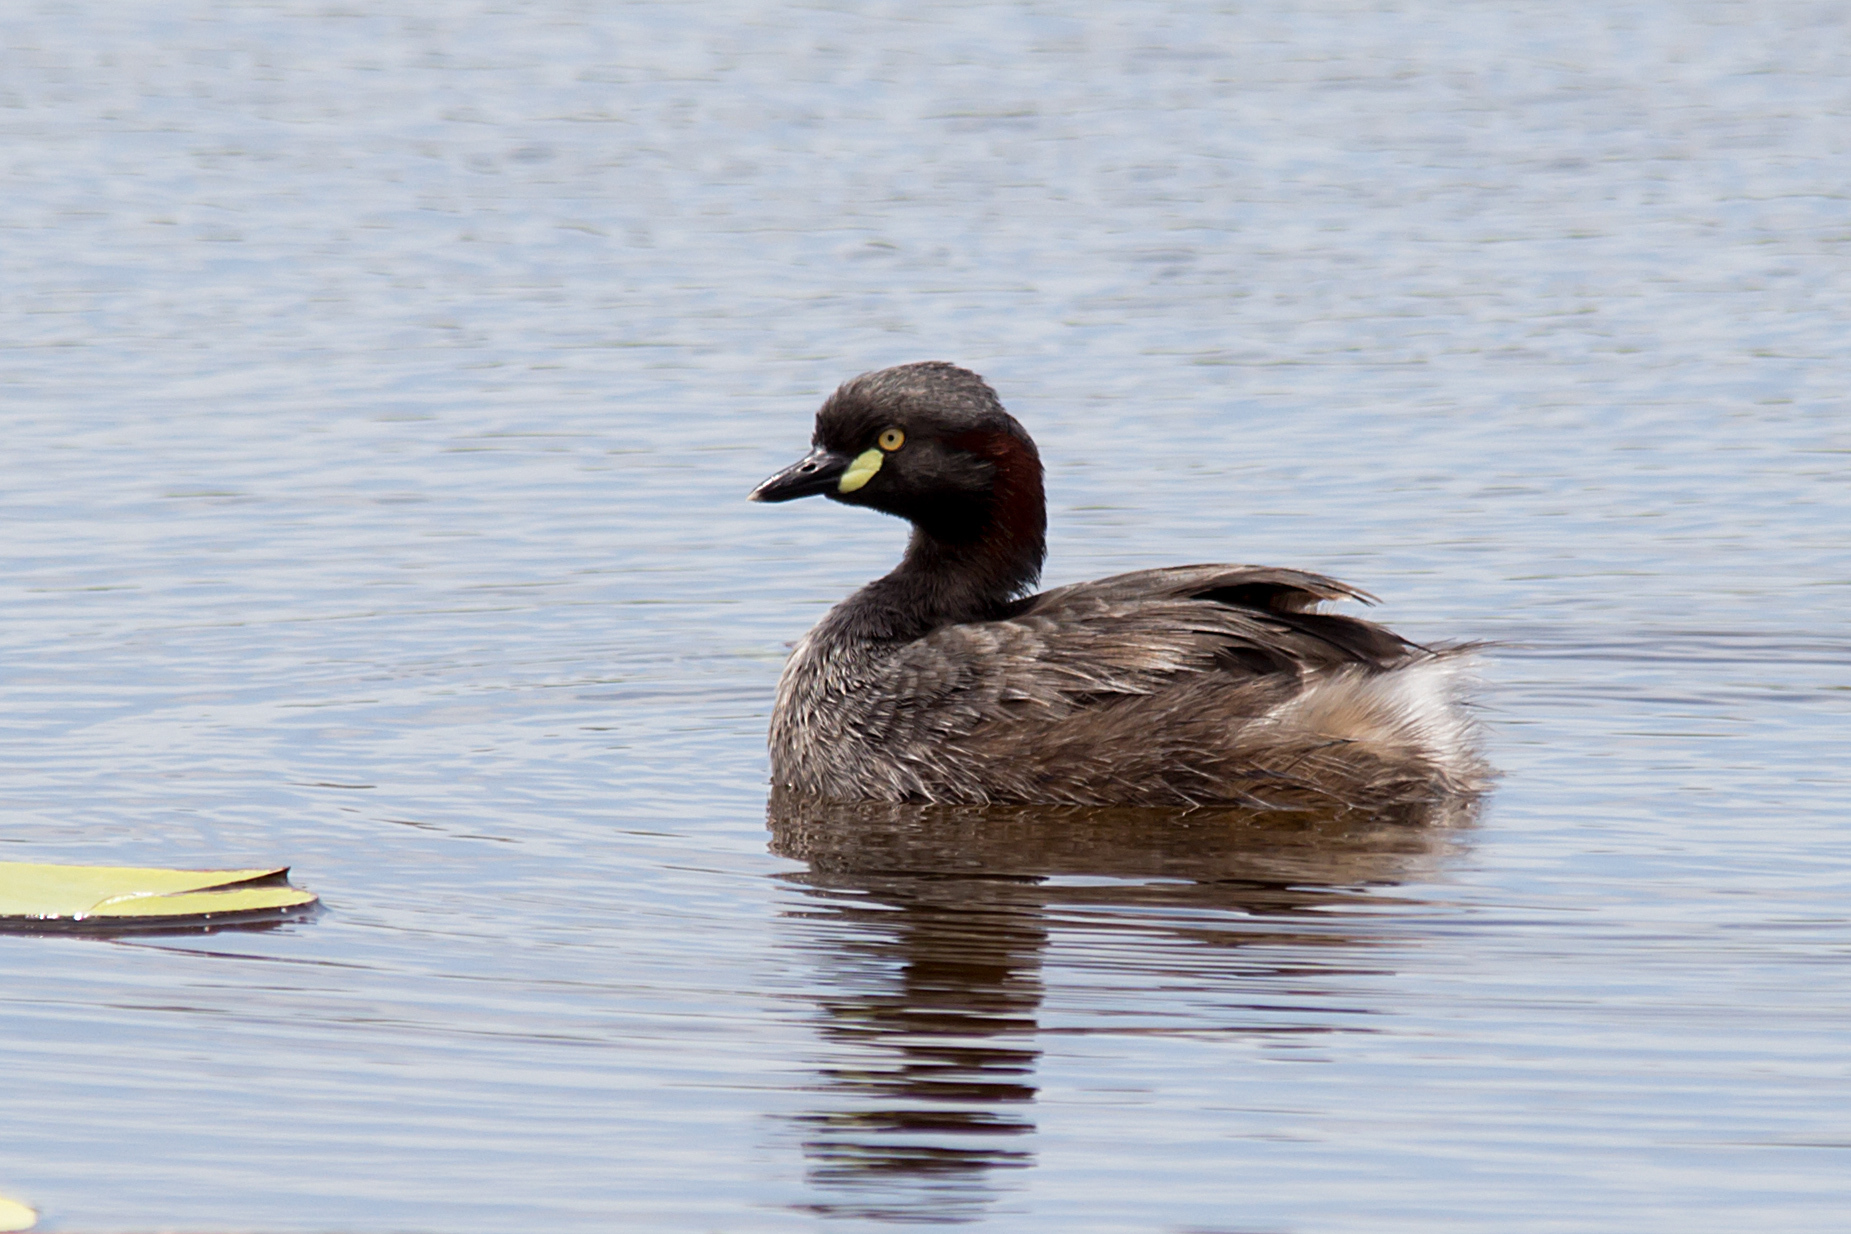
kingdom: Animalia
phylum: Chordata
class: Aves
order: Podicipediformes
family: Podicipedidae
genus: Tachybaptus
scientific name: Tachybaptus novaehollandiae
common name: Australasian grebe
